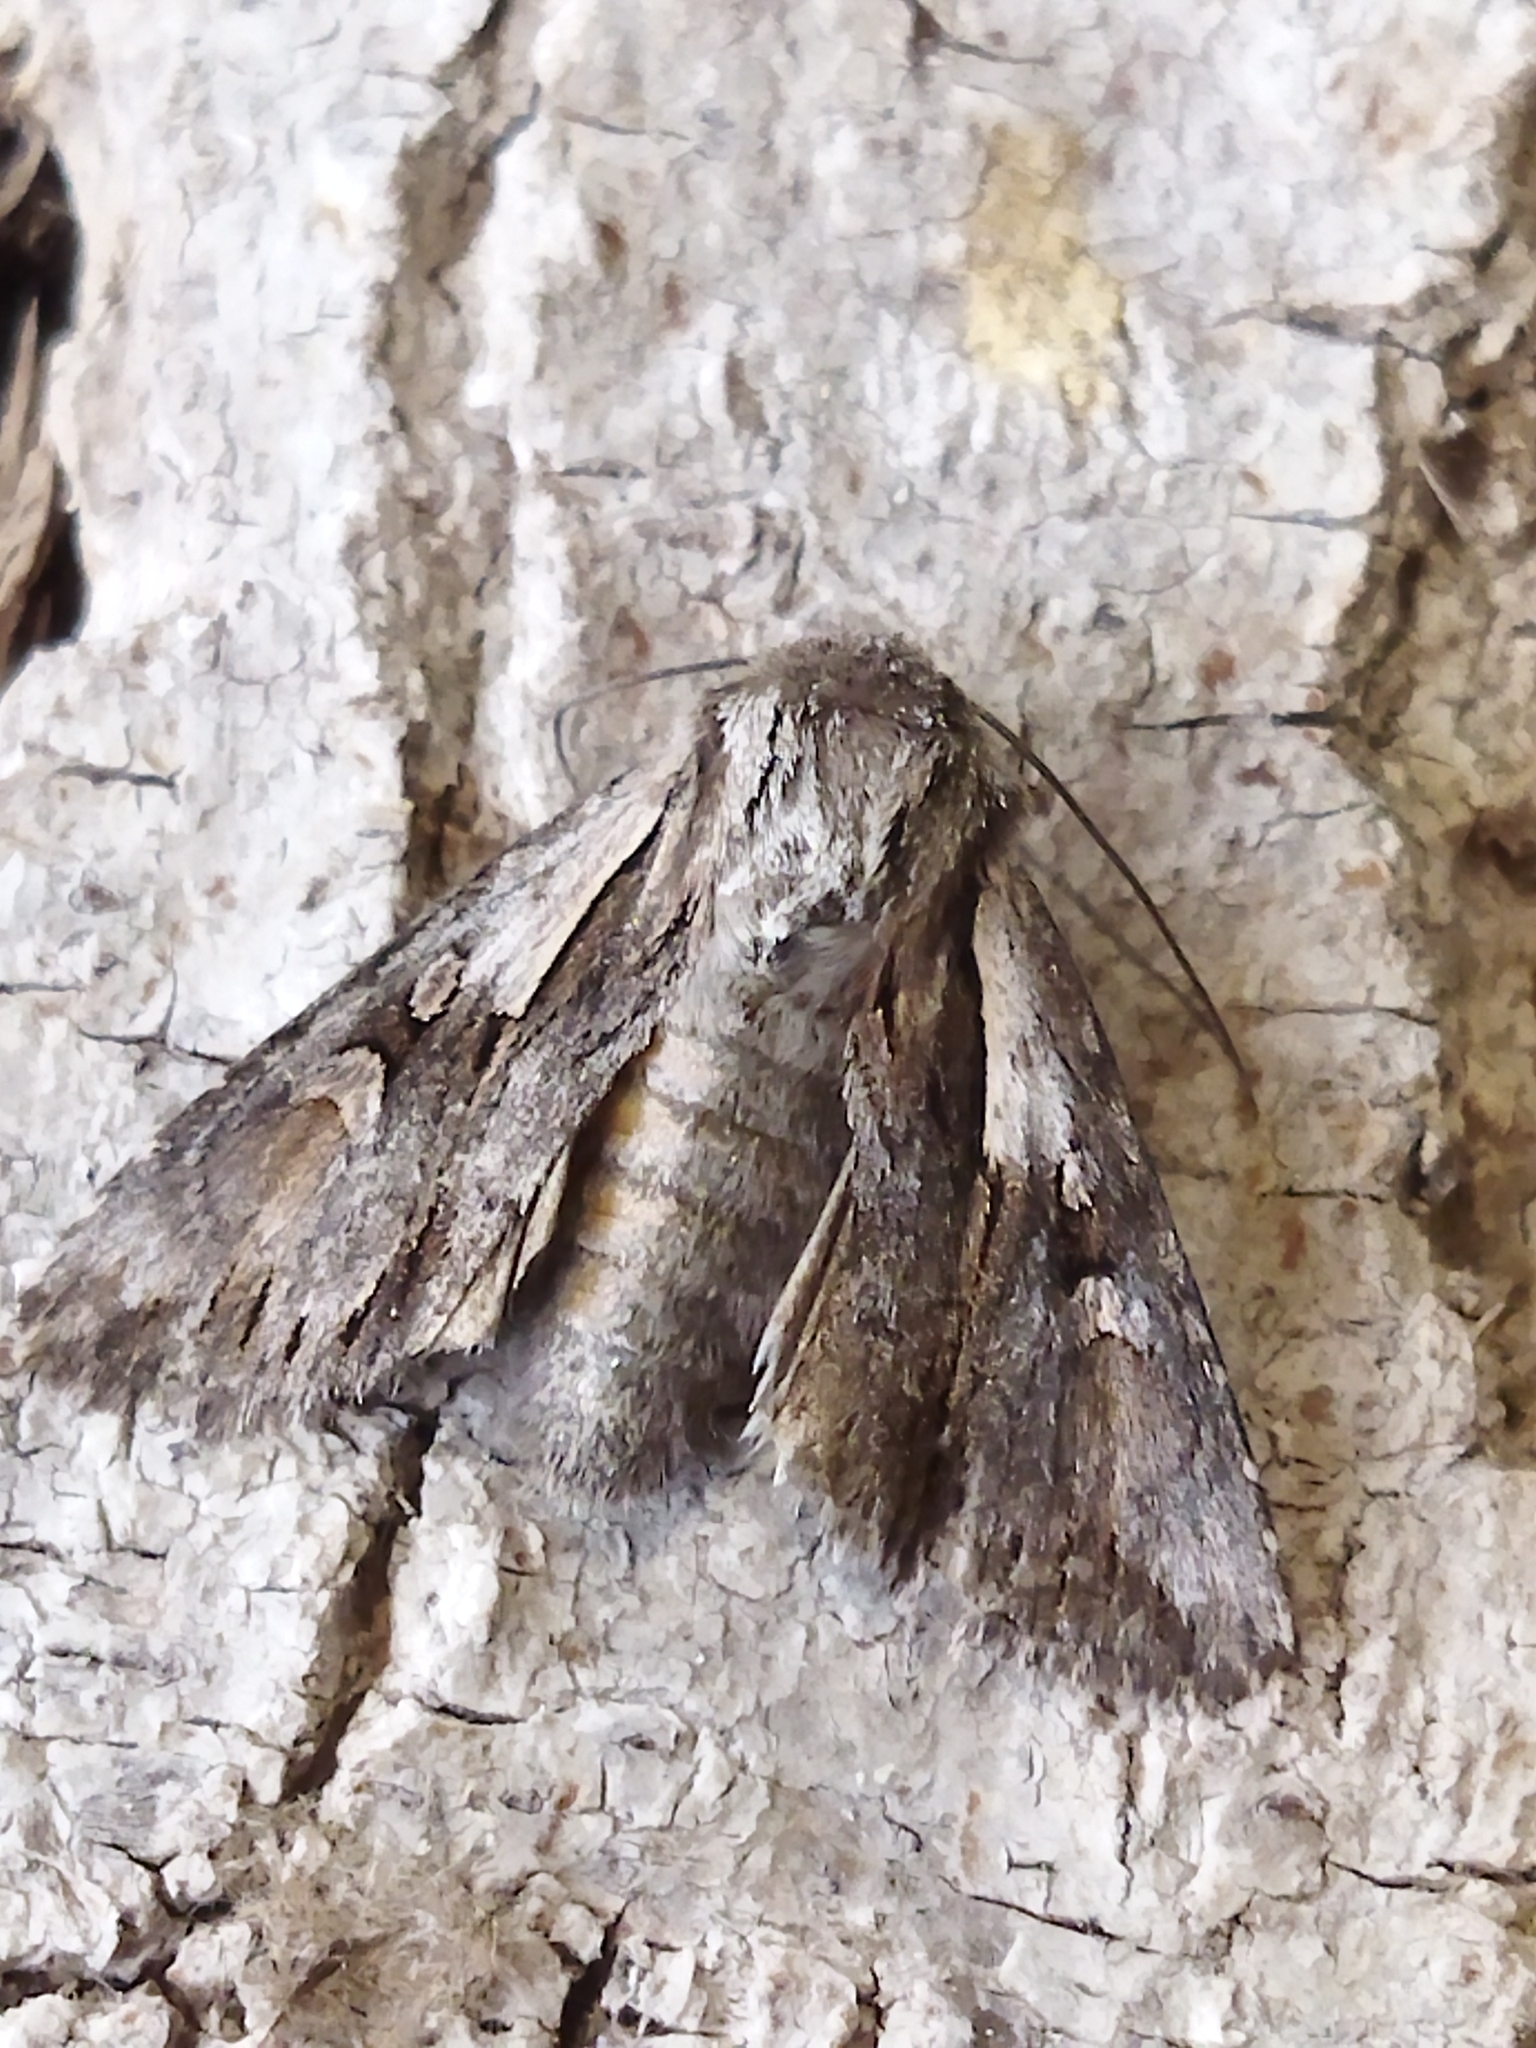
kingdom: Animalia
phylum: Arthropoda
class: Insecta
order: Lepidoptera
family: Noctuidae
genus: Chloantha
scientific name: Chloantha hyperici
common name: Pale-shouldered cloud
